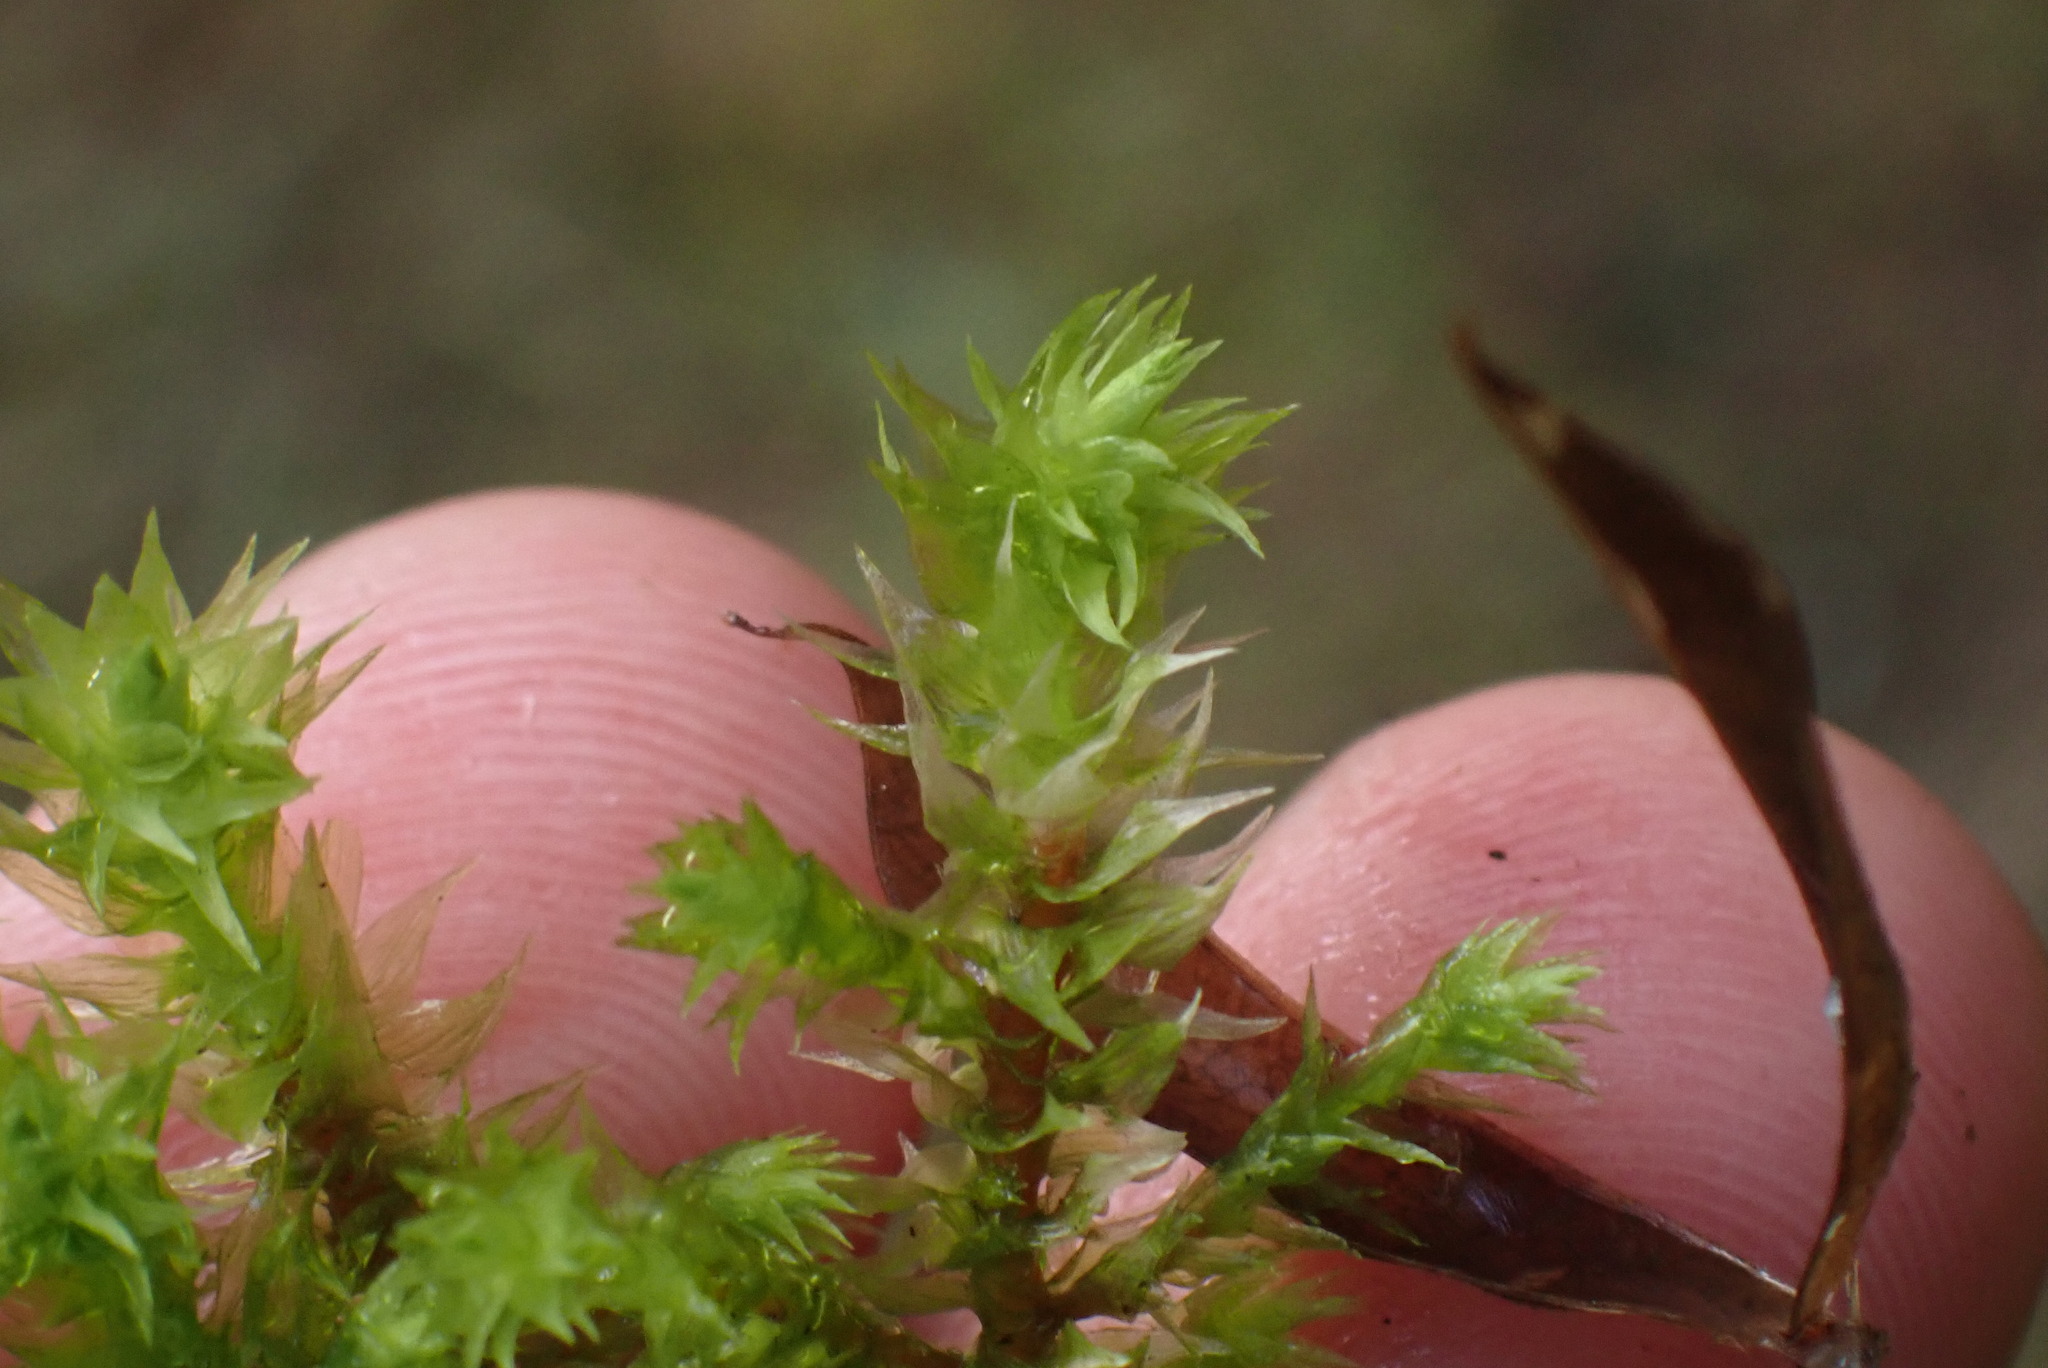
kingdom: Plantae
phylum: Bryophyta
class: Bryopsida
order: Hypnales
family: Hylocomiaceae
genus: Hylocomiadelphus
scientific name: Hylocomiadelphus triquetrus
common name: Rough goose neck moss
